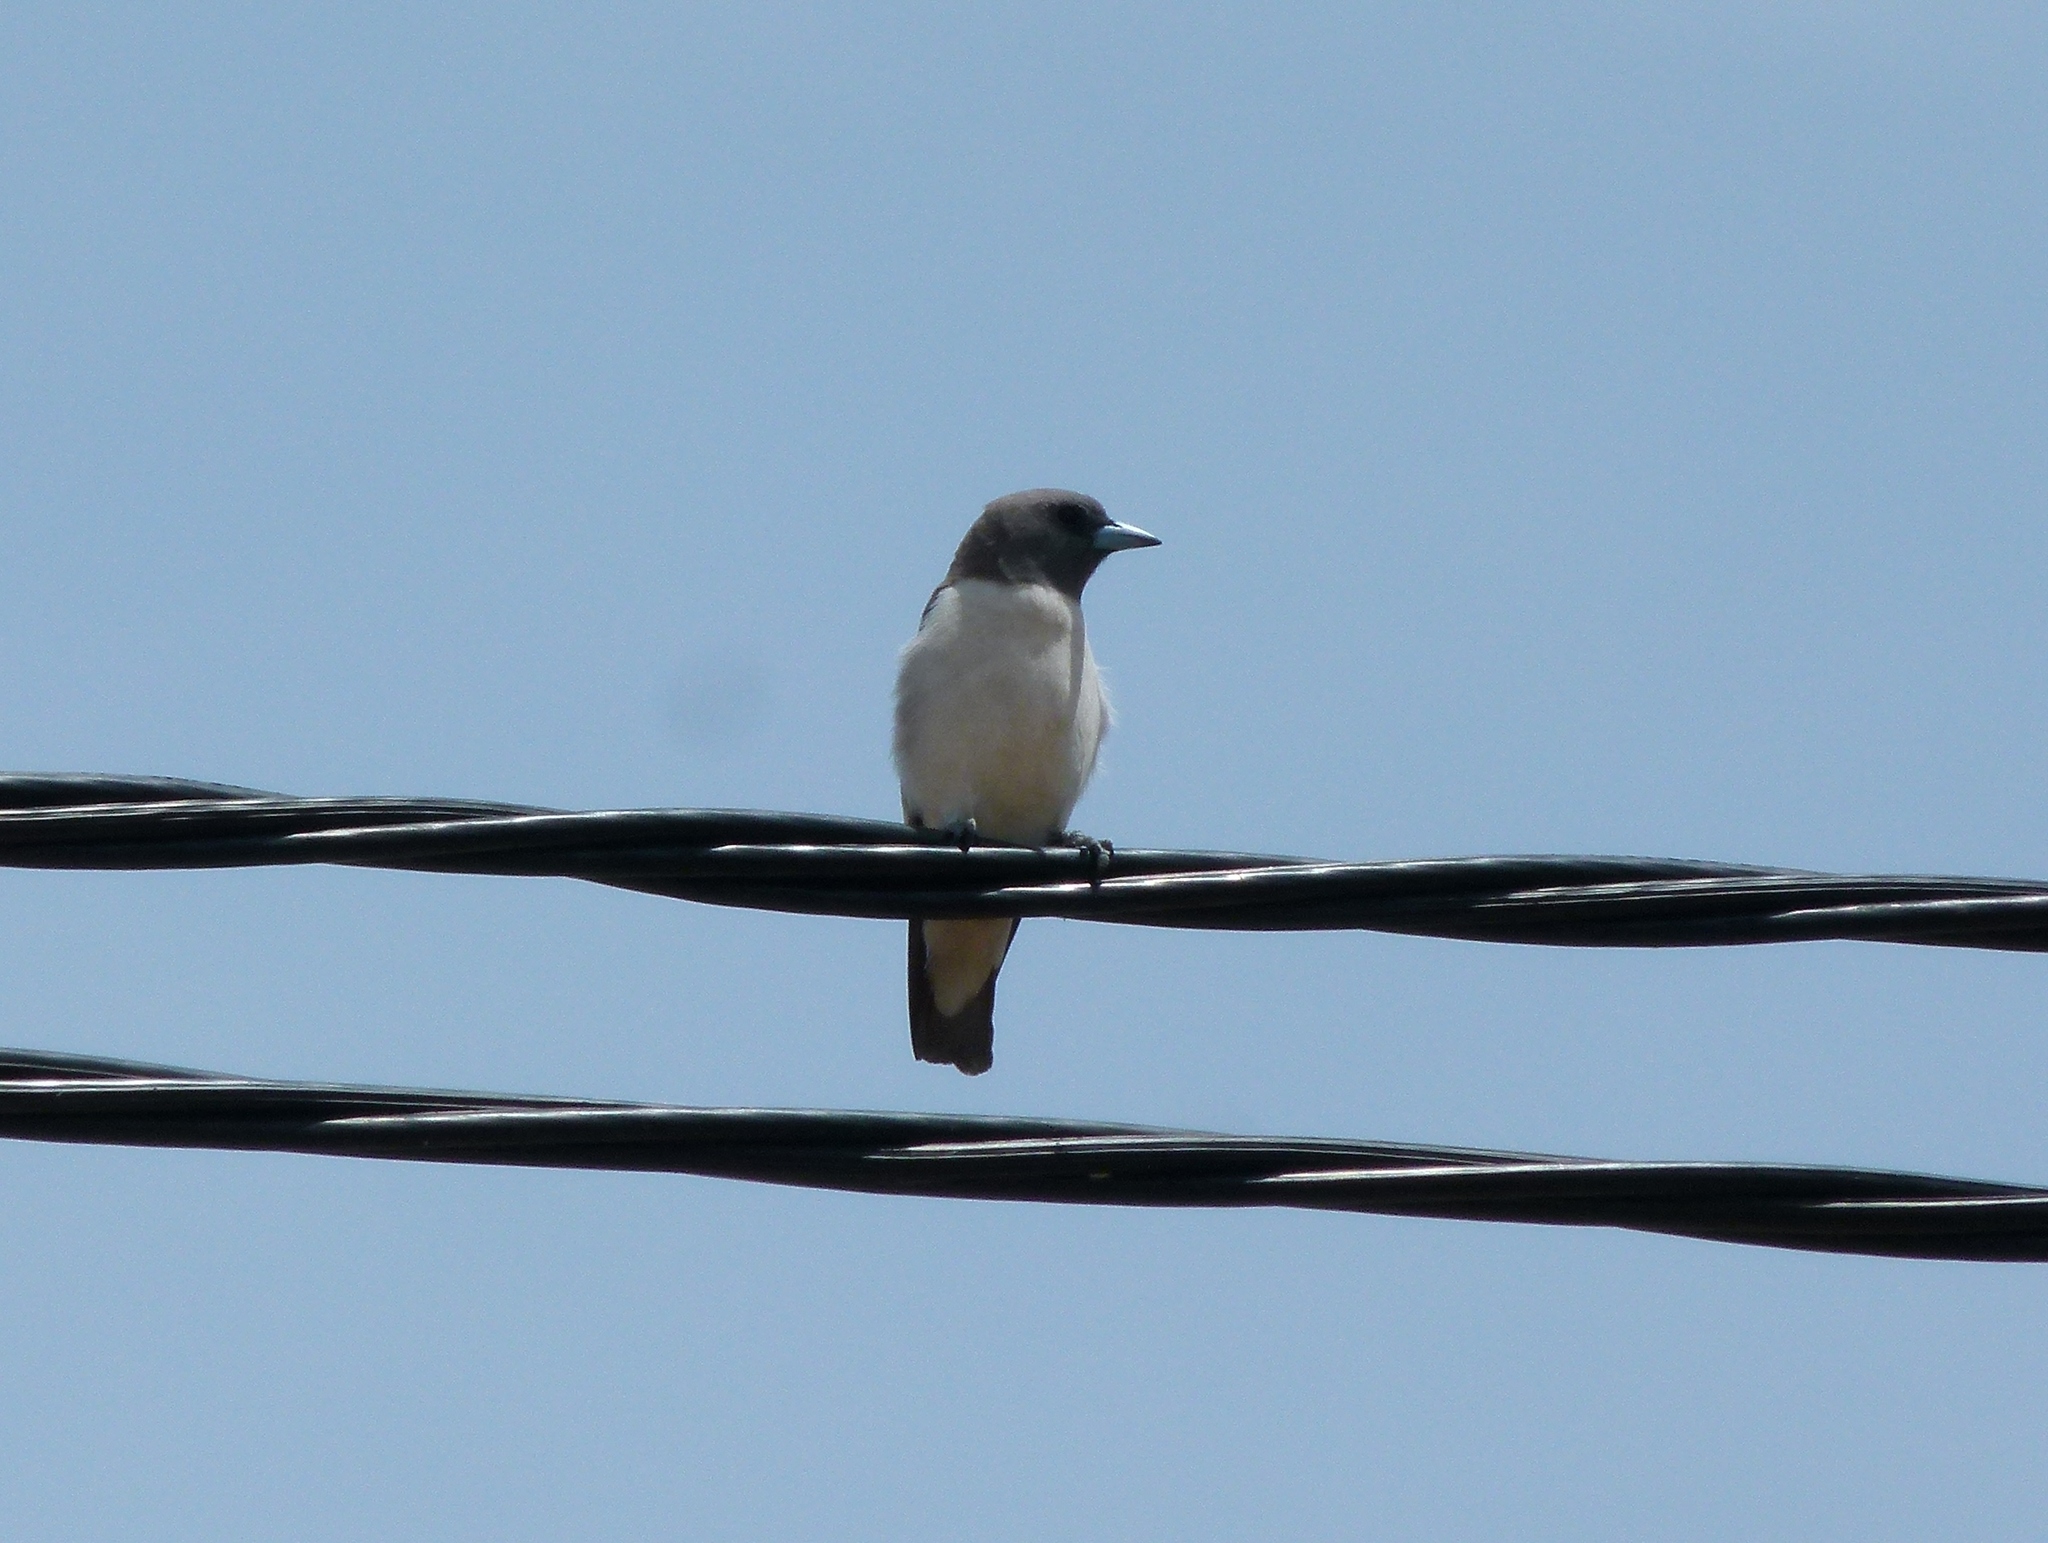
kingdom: Animalia
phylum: Chordata
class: Aves
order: Passeriformes
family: Artamidae
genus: Artamus
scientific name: Artamus leucoryn
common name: White-breasted woodswallow
